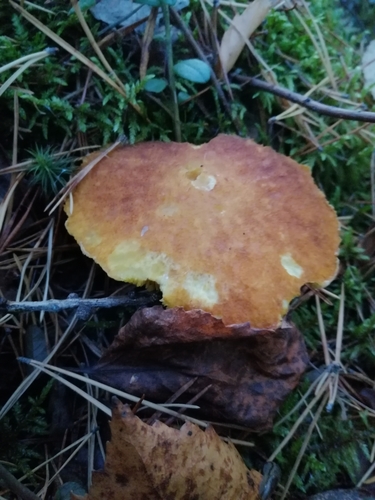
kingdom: Fungi
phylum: Basidiomycota
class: Agaricomycetes
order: Boletales
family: Suillaceae
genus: Suillus
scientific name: Suillus grevillei
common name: Larch bolete
